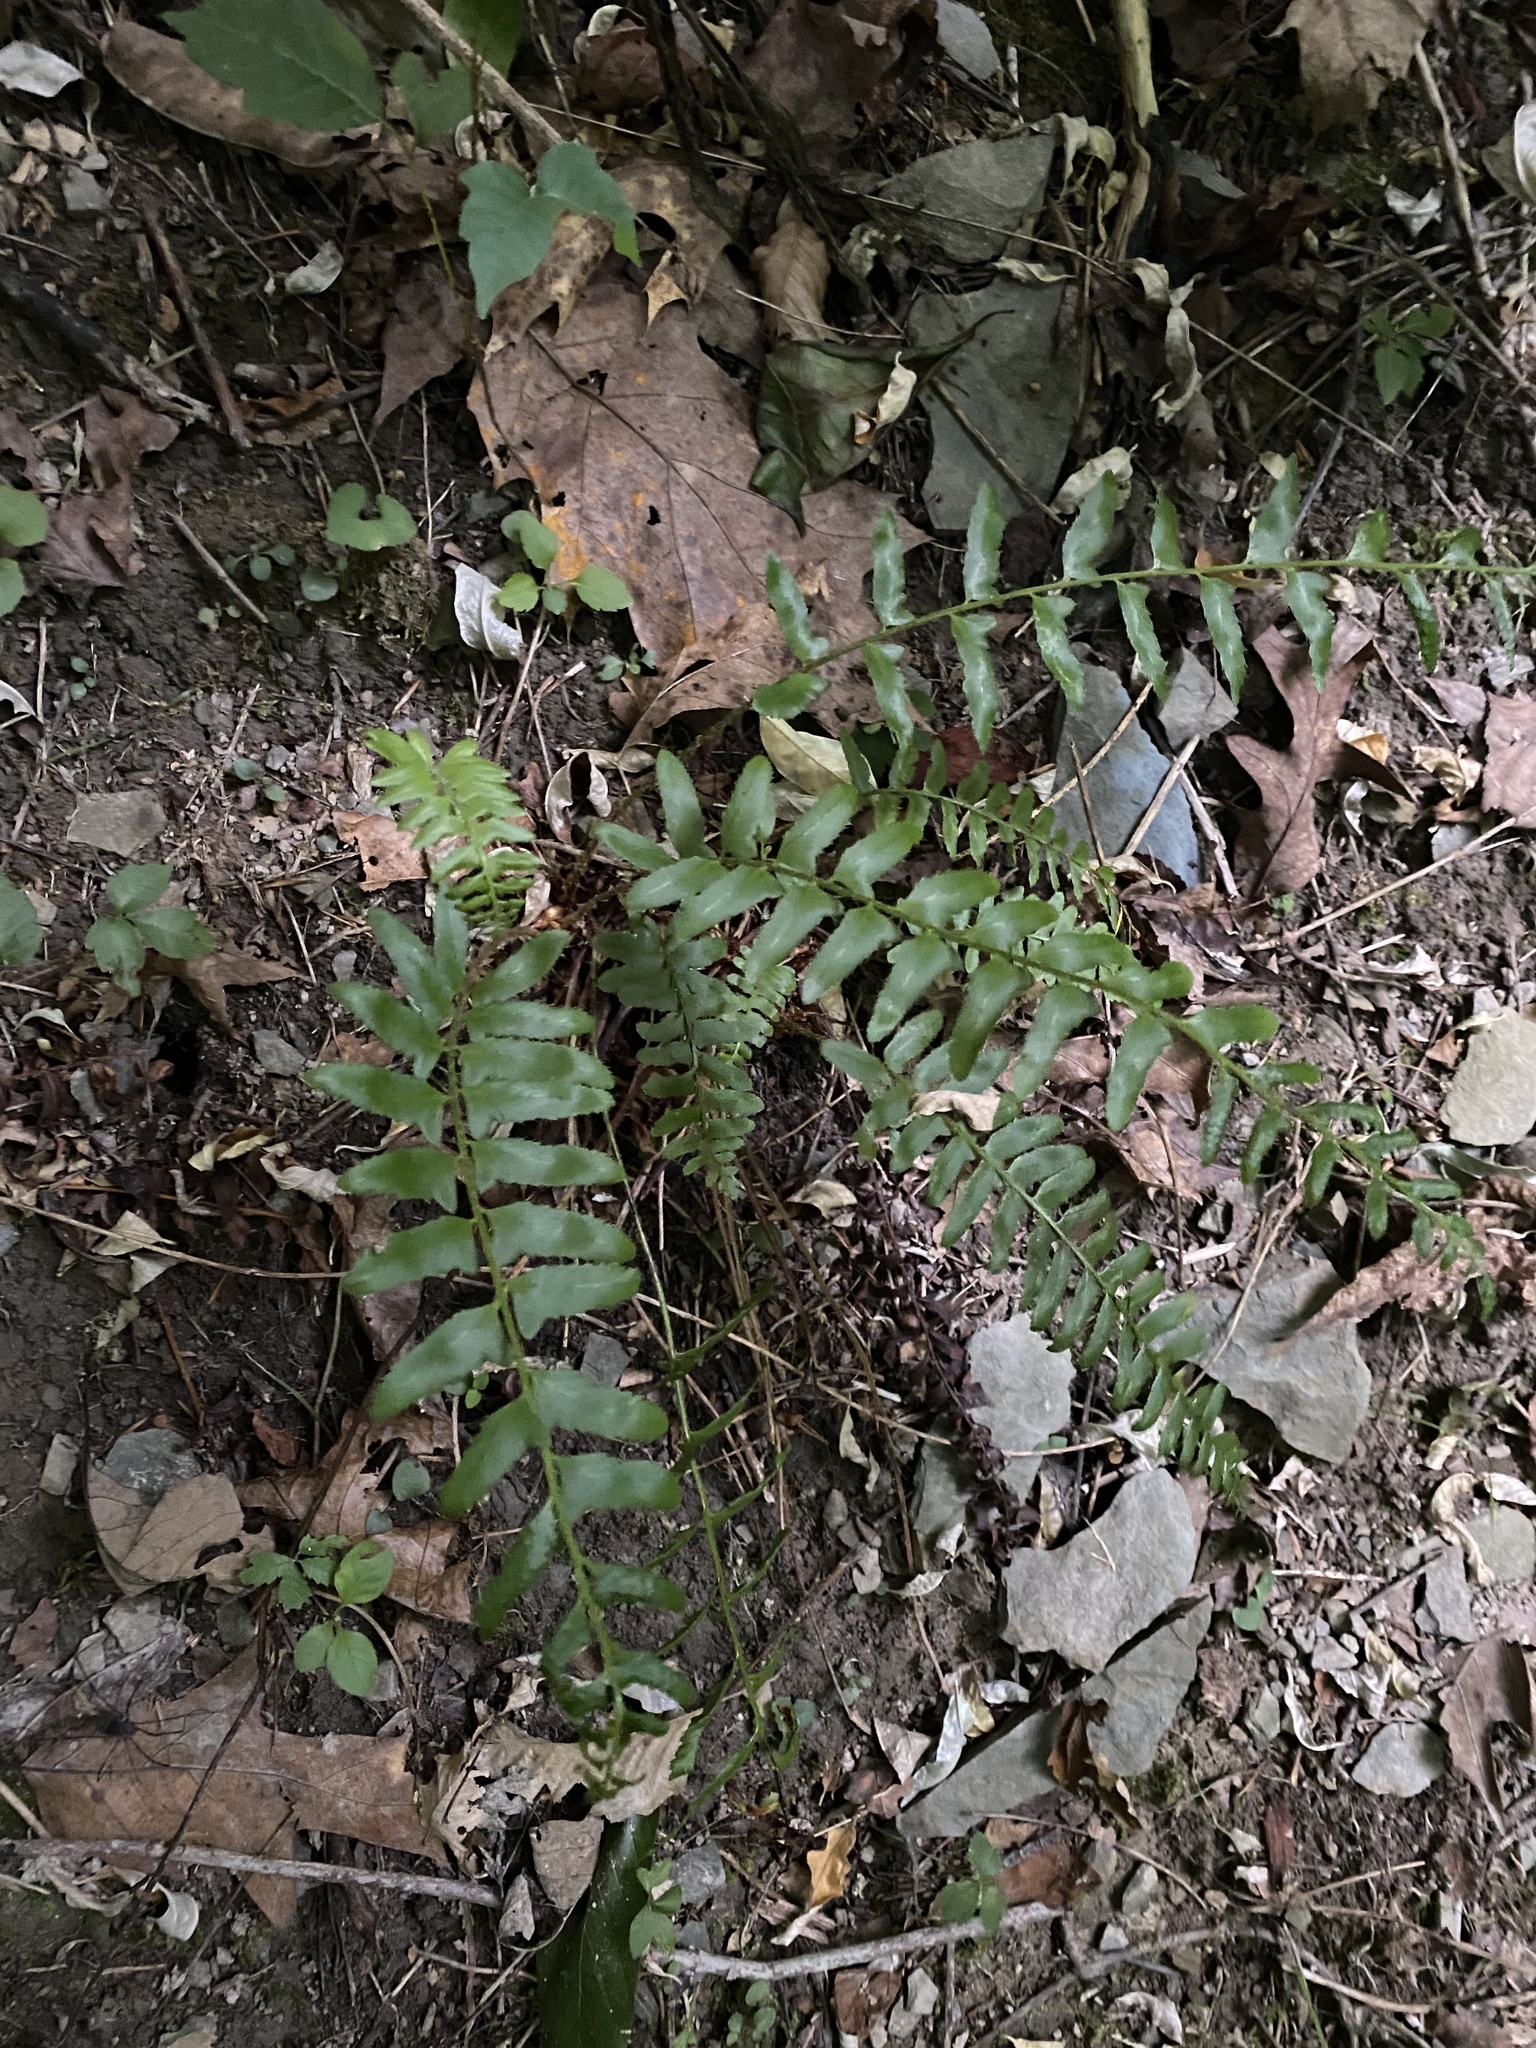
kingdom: Plantae
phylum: Tracheophyta
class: Polypodiopsida
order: Polypodiales
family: Dryopteridaceae
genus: Polystichum
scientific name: Polystichum acrostichoides
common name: Christmas fern
